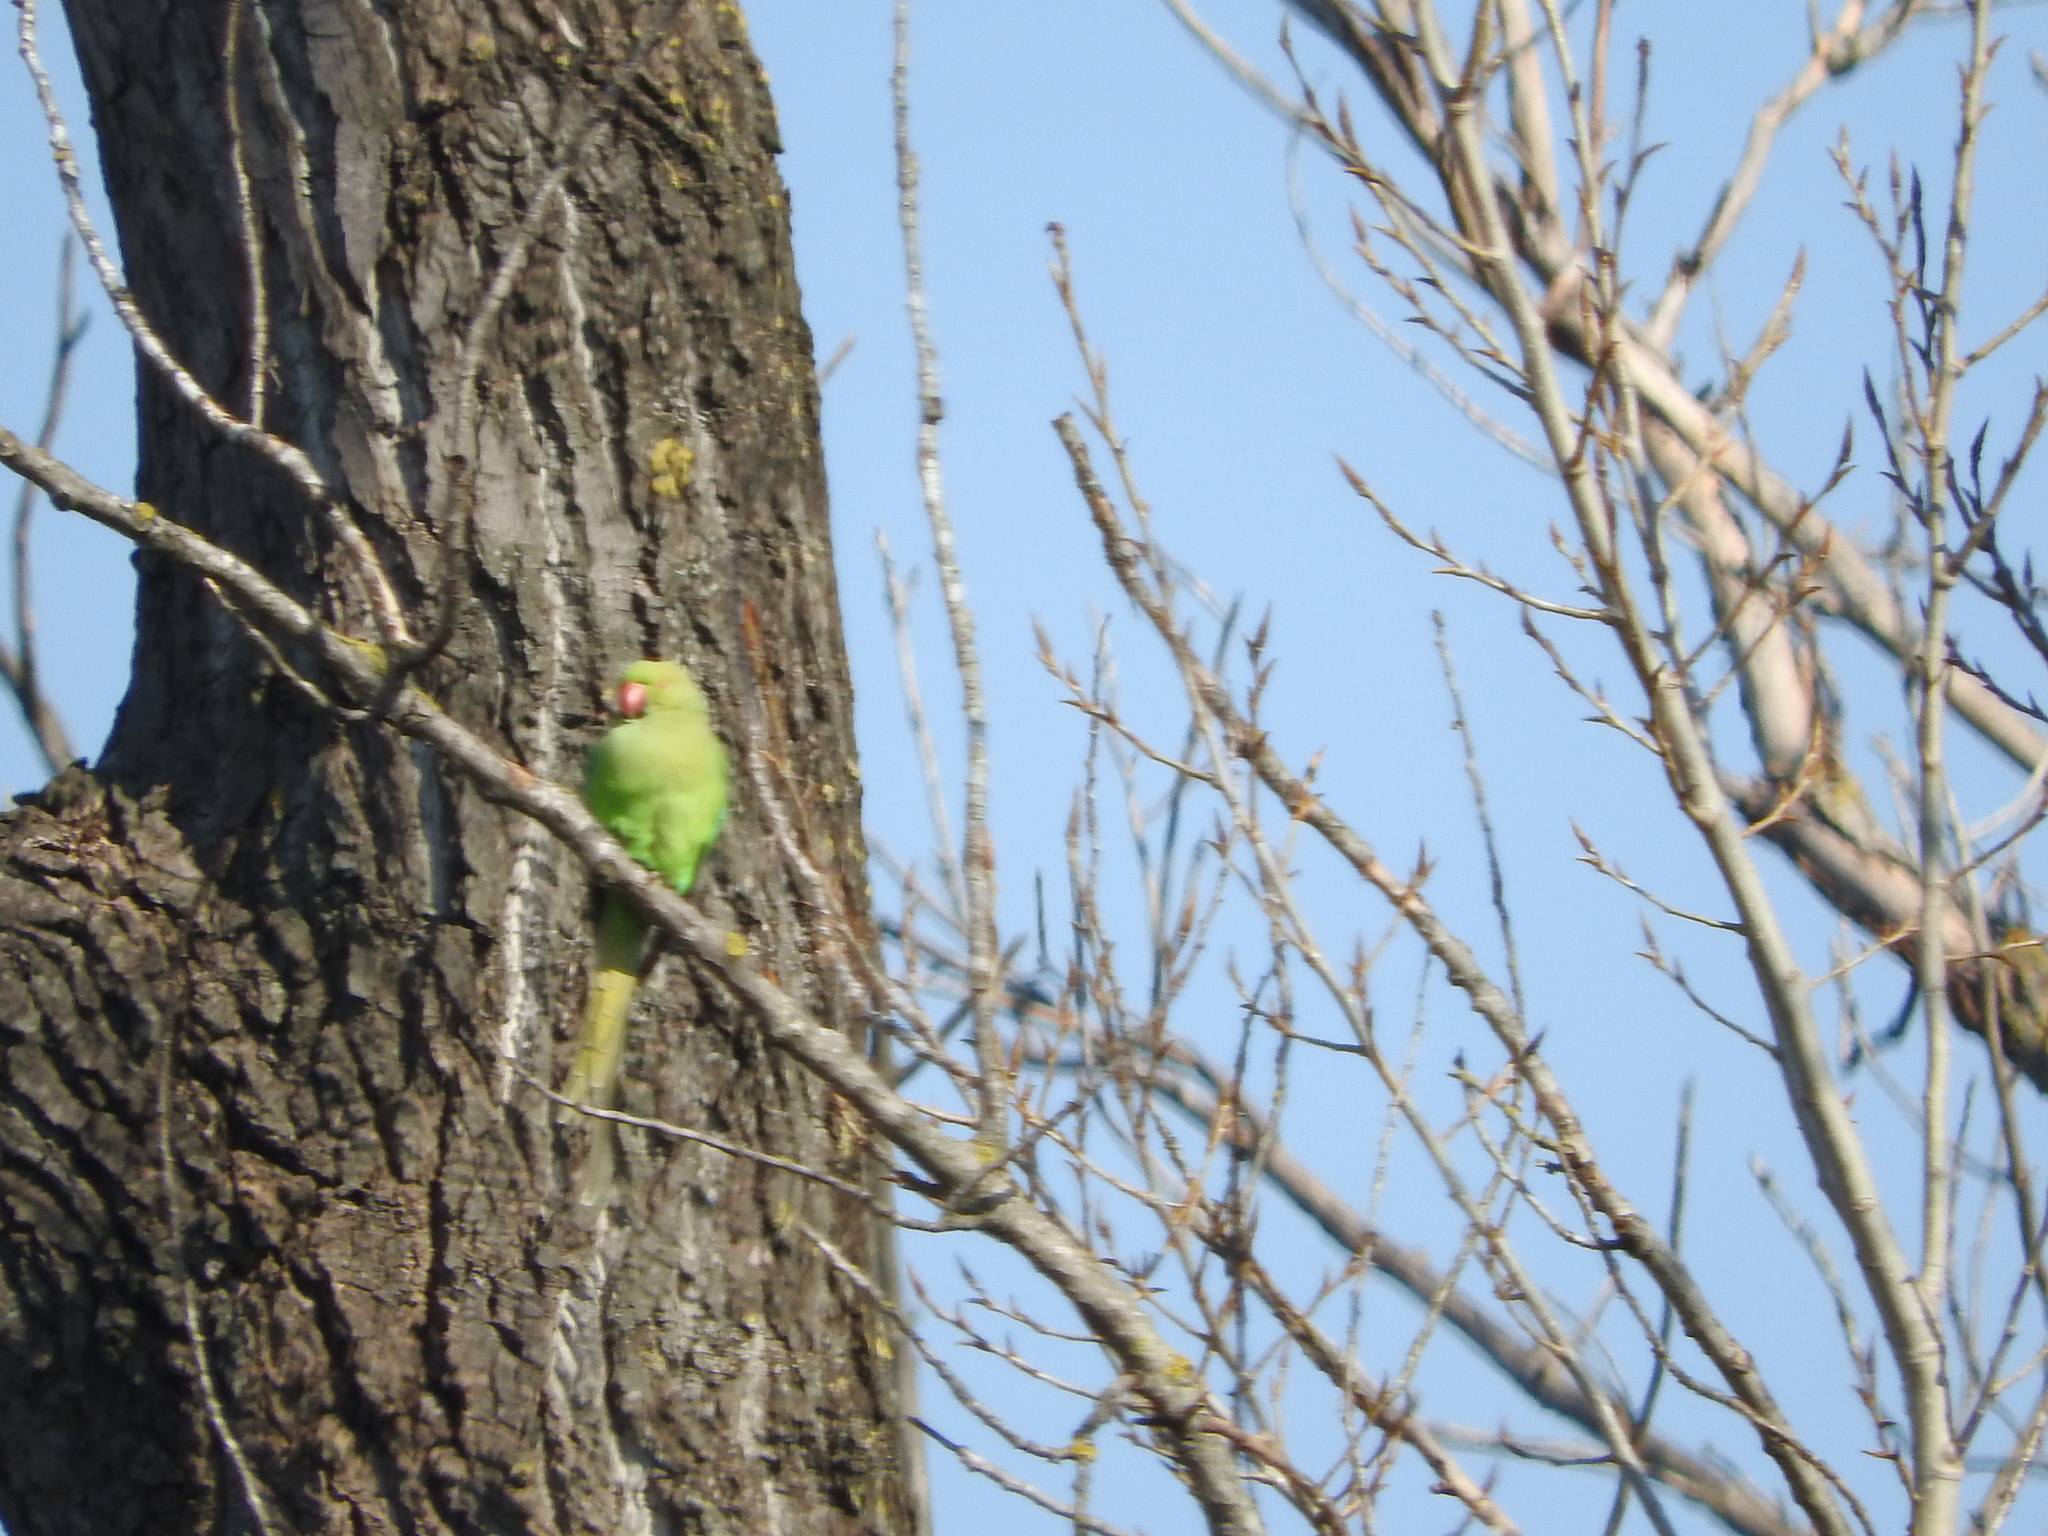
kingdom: Animalia
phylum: Chordata
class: Aves
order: Psittaciformes
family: Psittacidae
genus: Psittacula
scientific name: Psittacula krameri
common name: Rose-ringed parakeet
